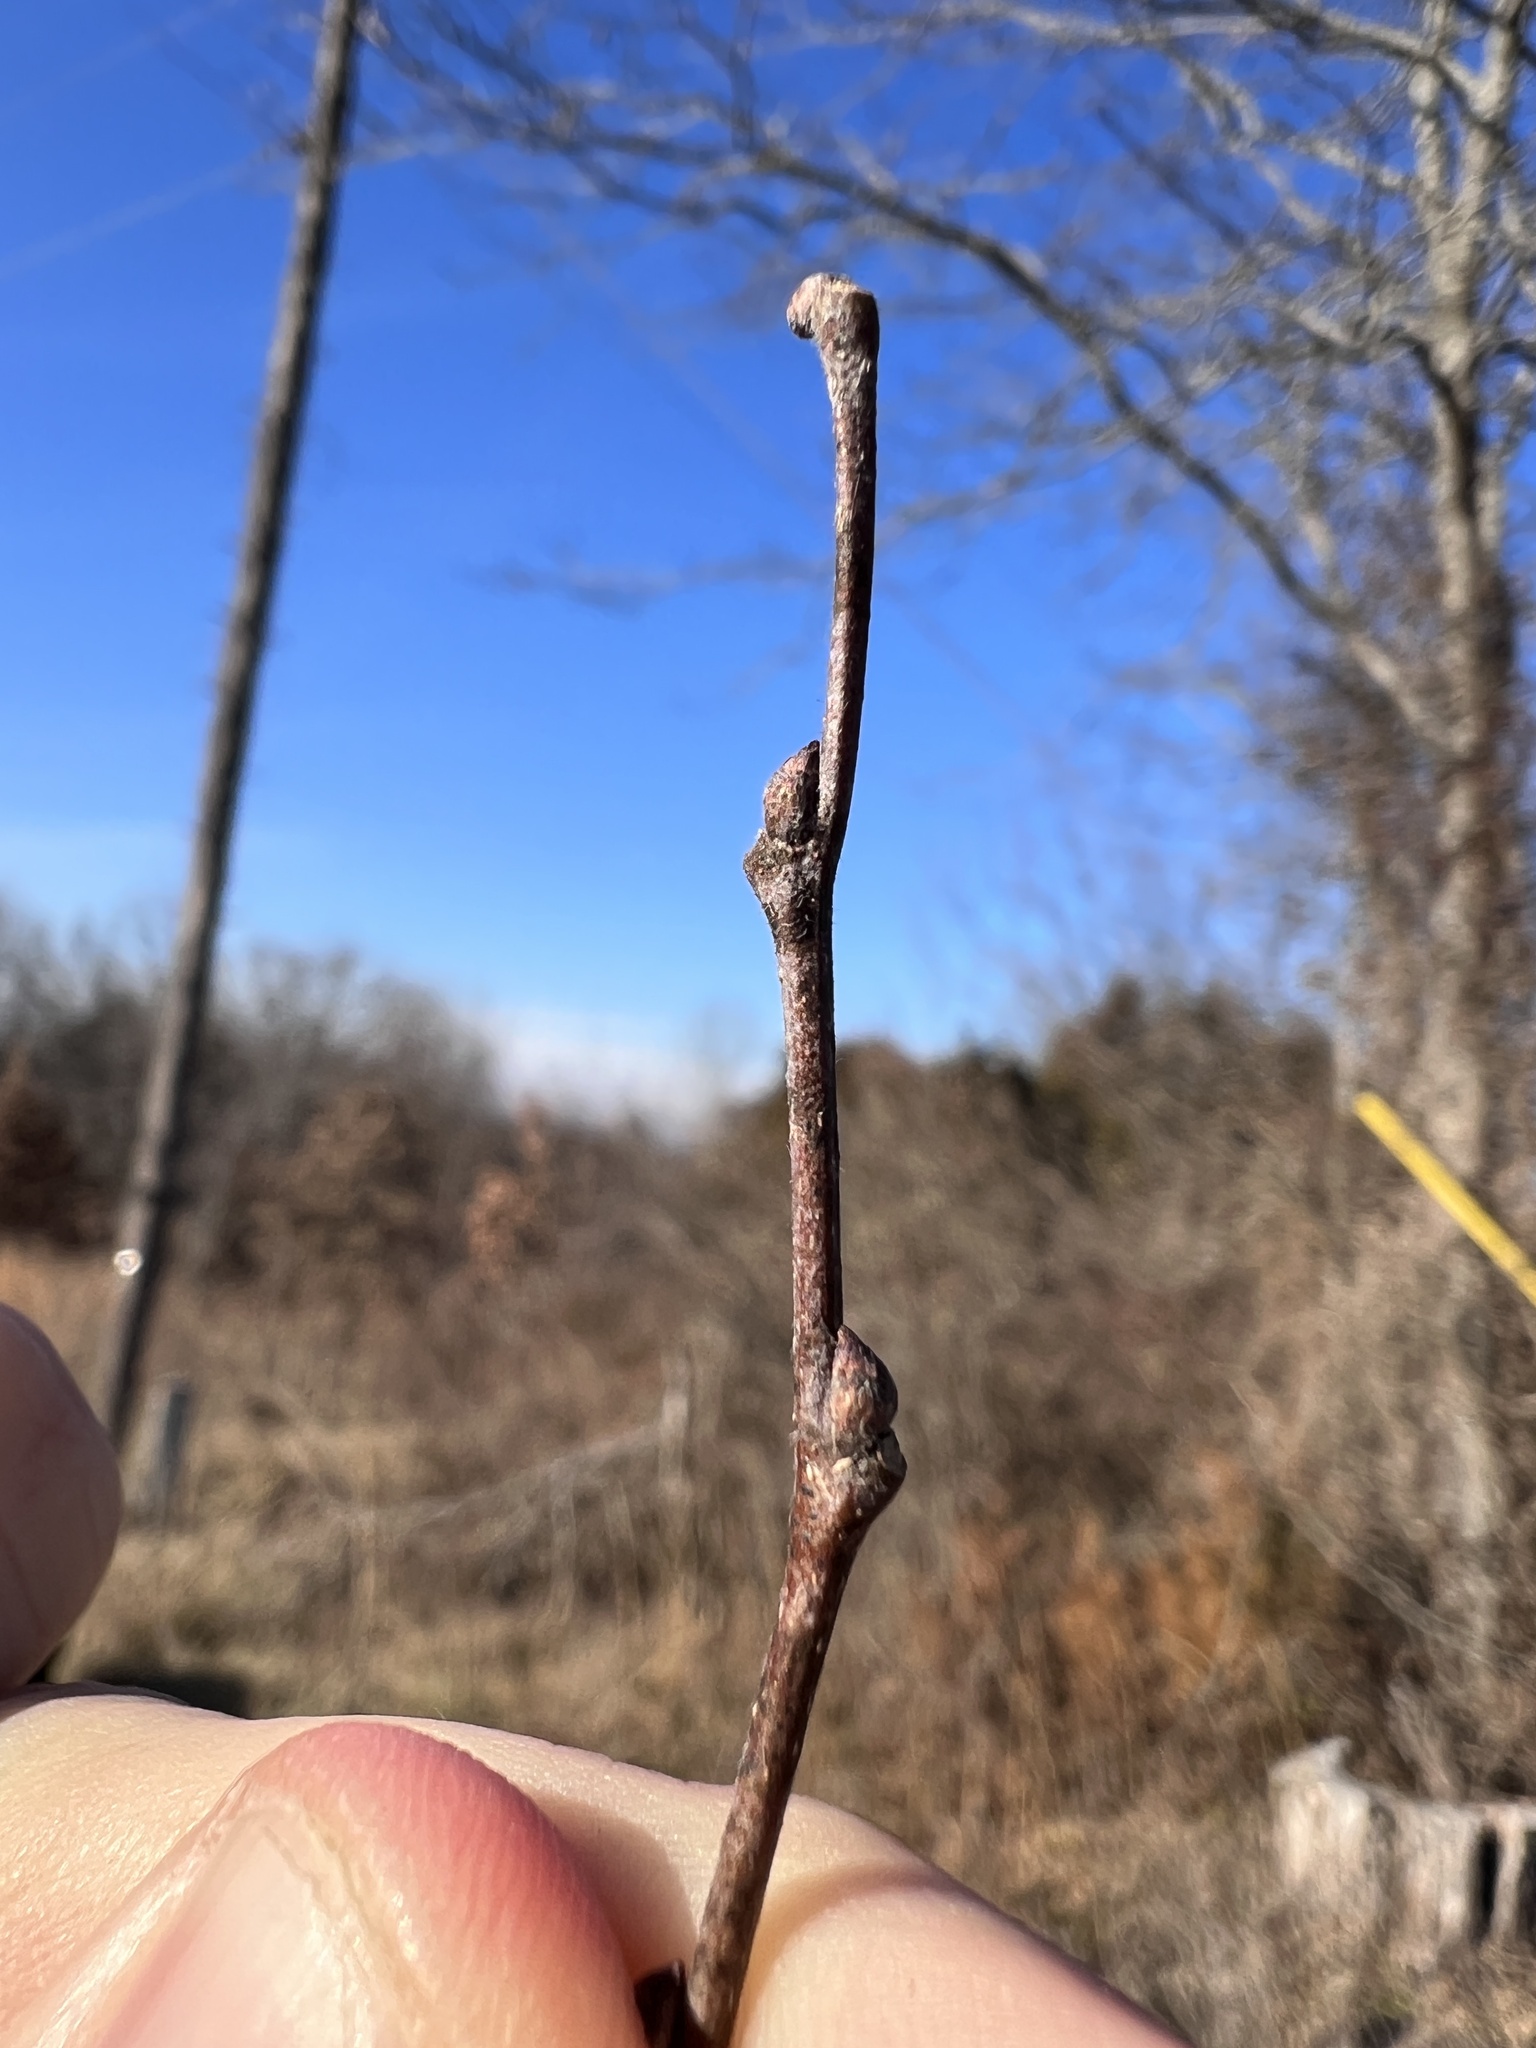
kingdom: Plantae
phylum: Tracheophyta
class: Magnoliopsida
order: Fabales
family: Fabaceae
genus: Gleditsia
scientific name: Gleditsia triacanthos
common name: Common honeylocust
